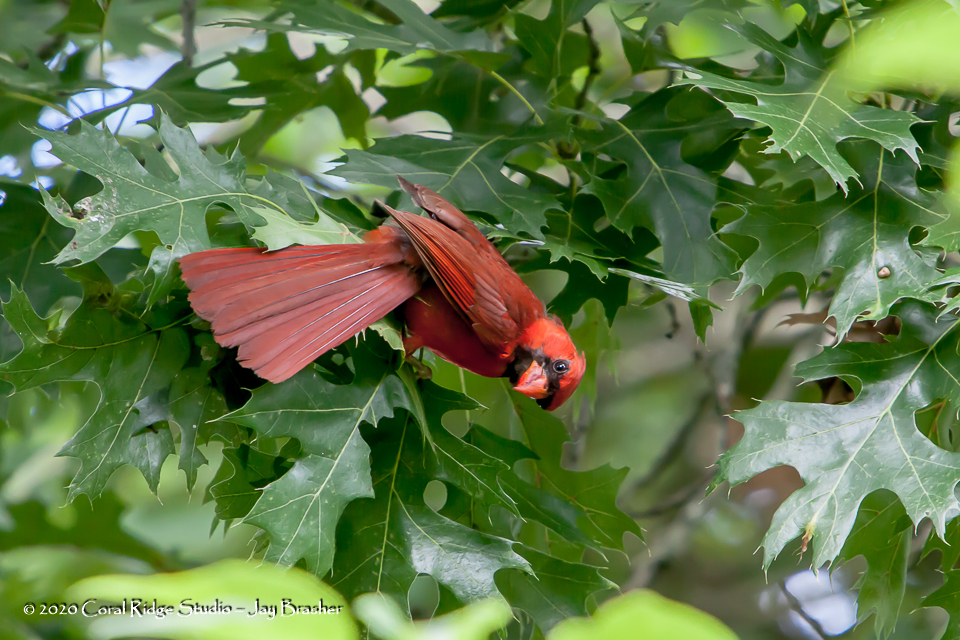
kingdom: Animalia
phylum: Chordata
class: Aves
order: Passeriformes
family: Cardinalidae
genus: Cardinalis
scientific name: Cardinalis cardinalis
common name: Northern cardinal
